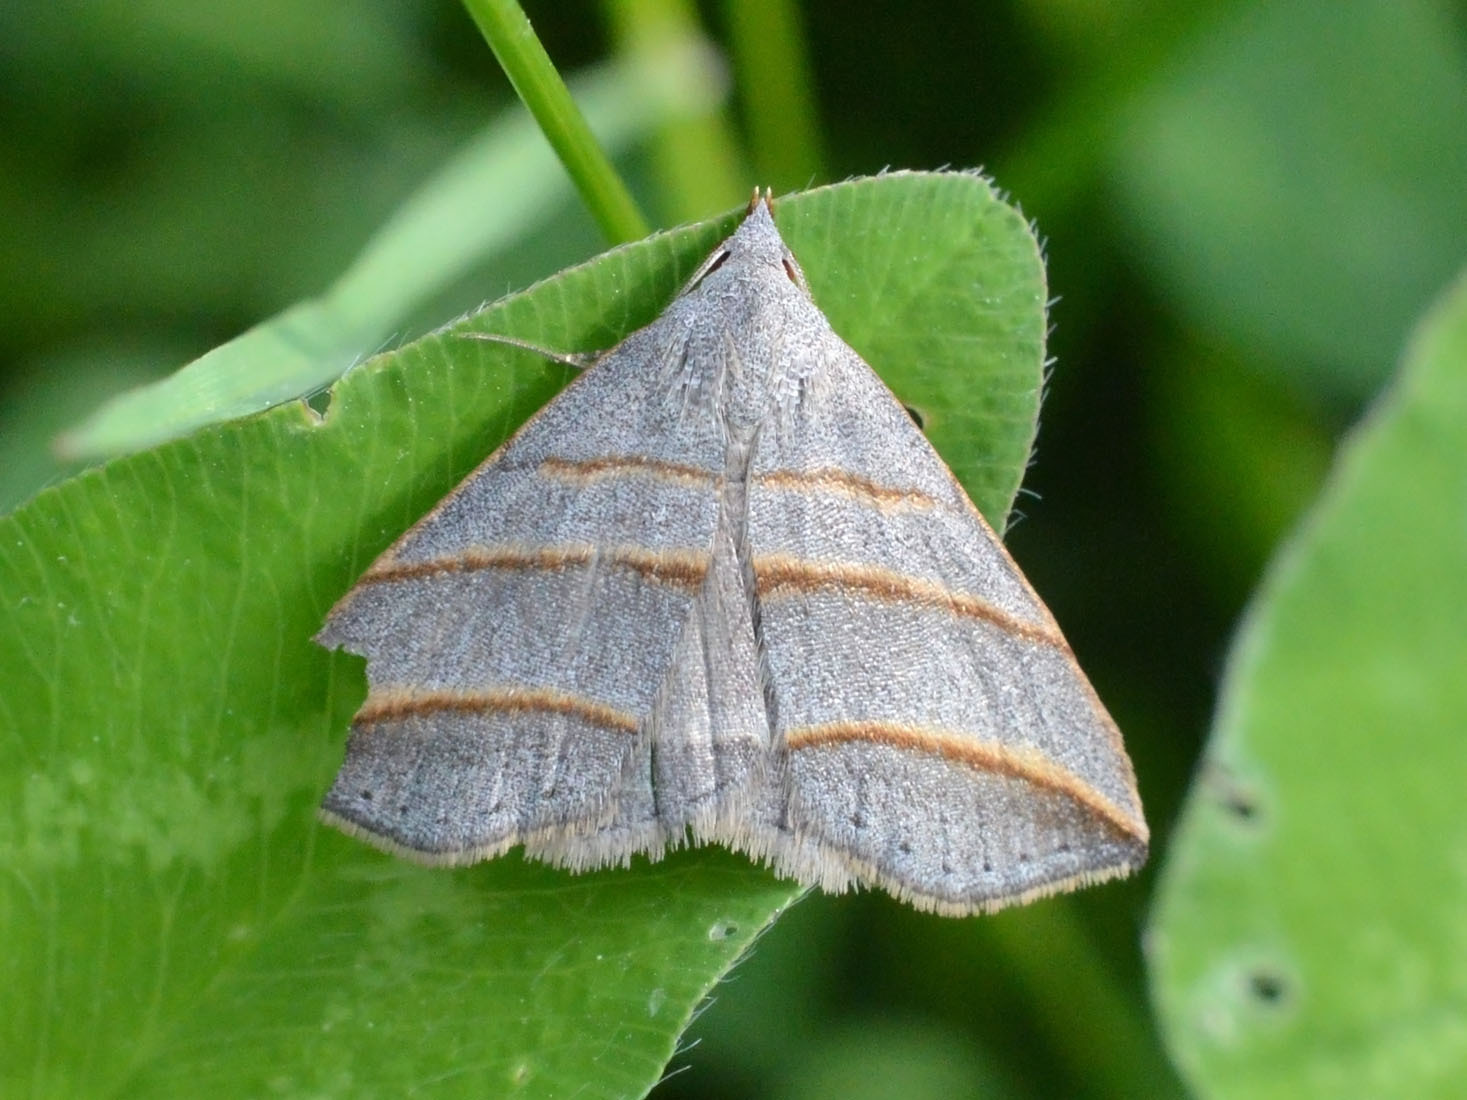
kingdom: Animalia
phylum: Arthropoda
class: Insecta
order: Lepidoptera
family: Erebidae
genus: Colobochyla
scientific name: Colobochyla salicalis
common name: Lesser belle
